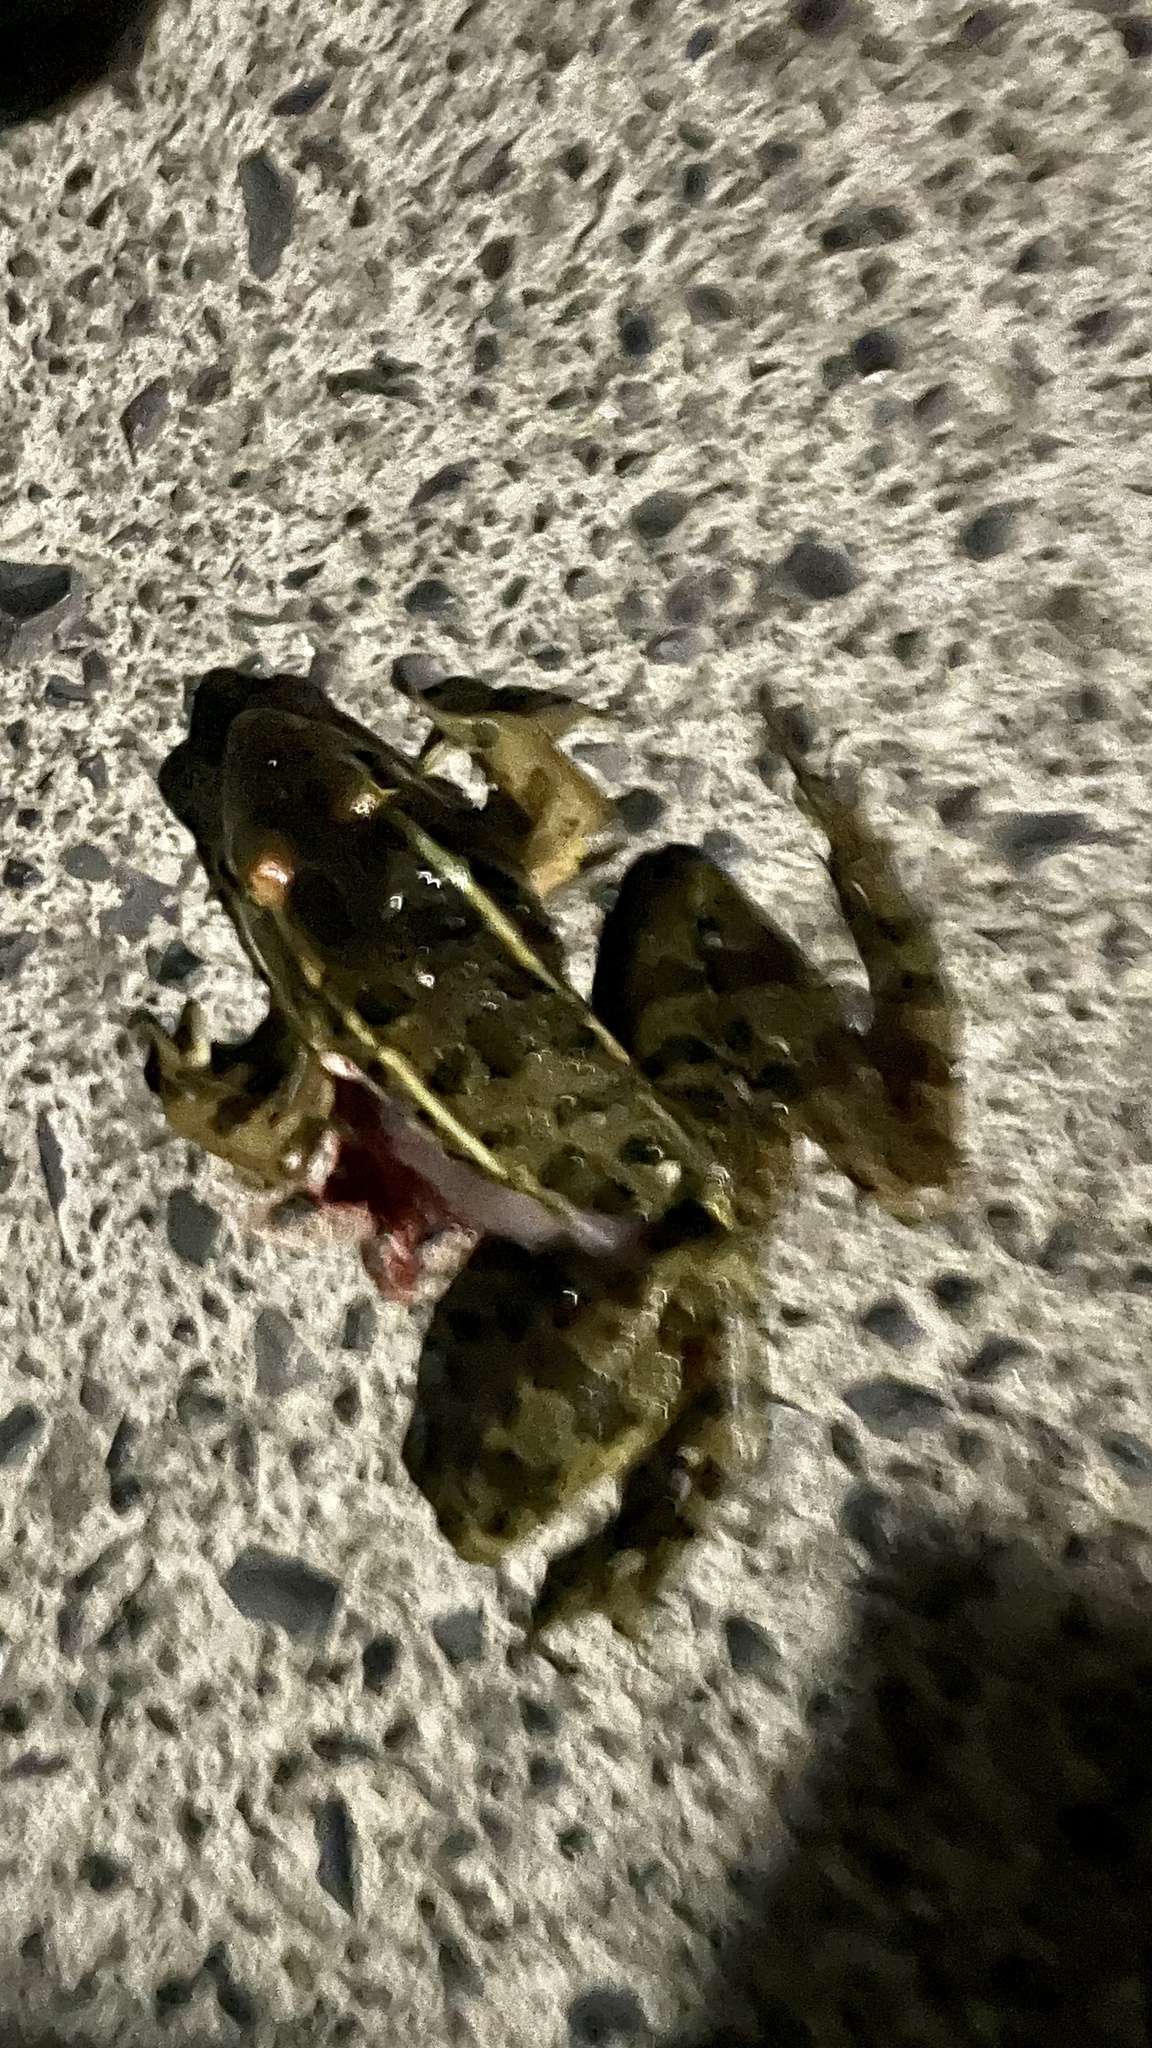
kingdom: Animalia
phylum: Chordata
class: Amphibia
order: Anura
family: Ranidae
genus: Lithobates
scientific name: Lithobates berlandieri
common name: Rio grande leopard frog
